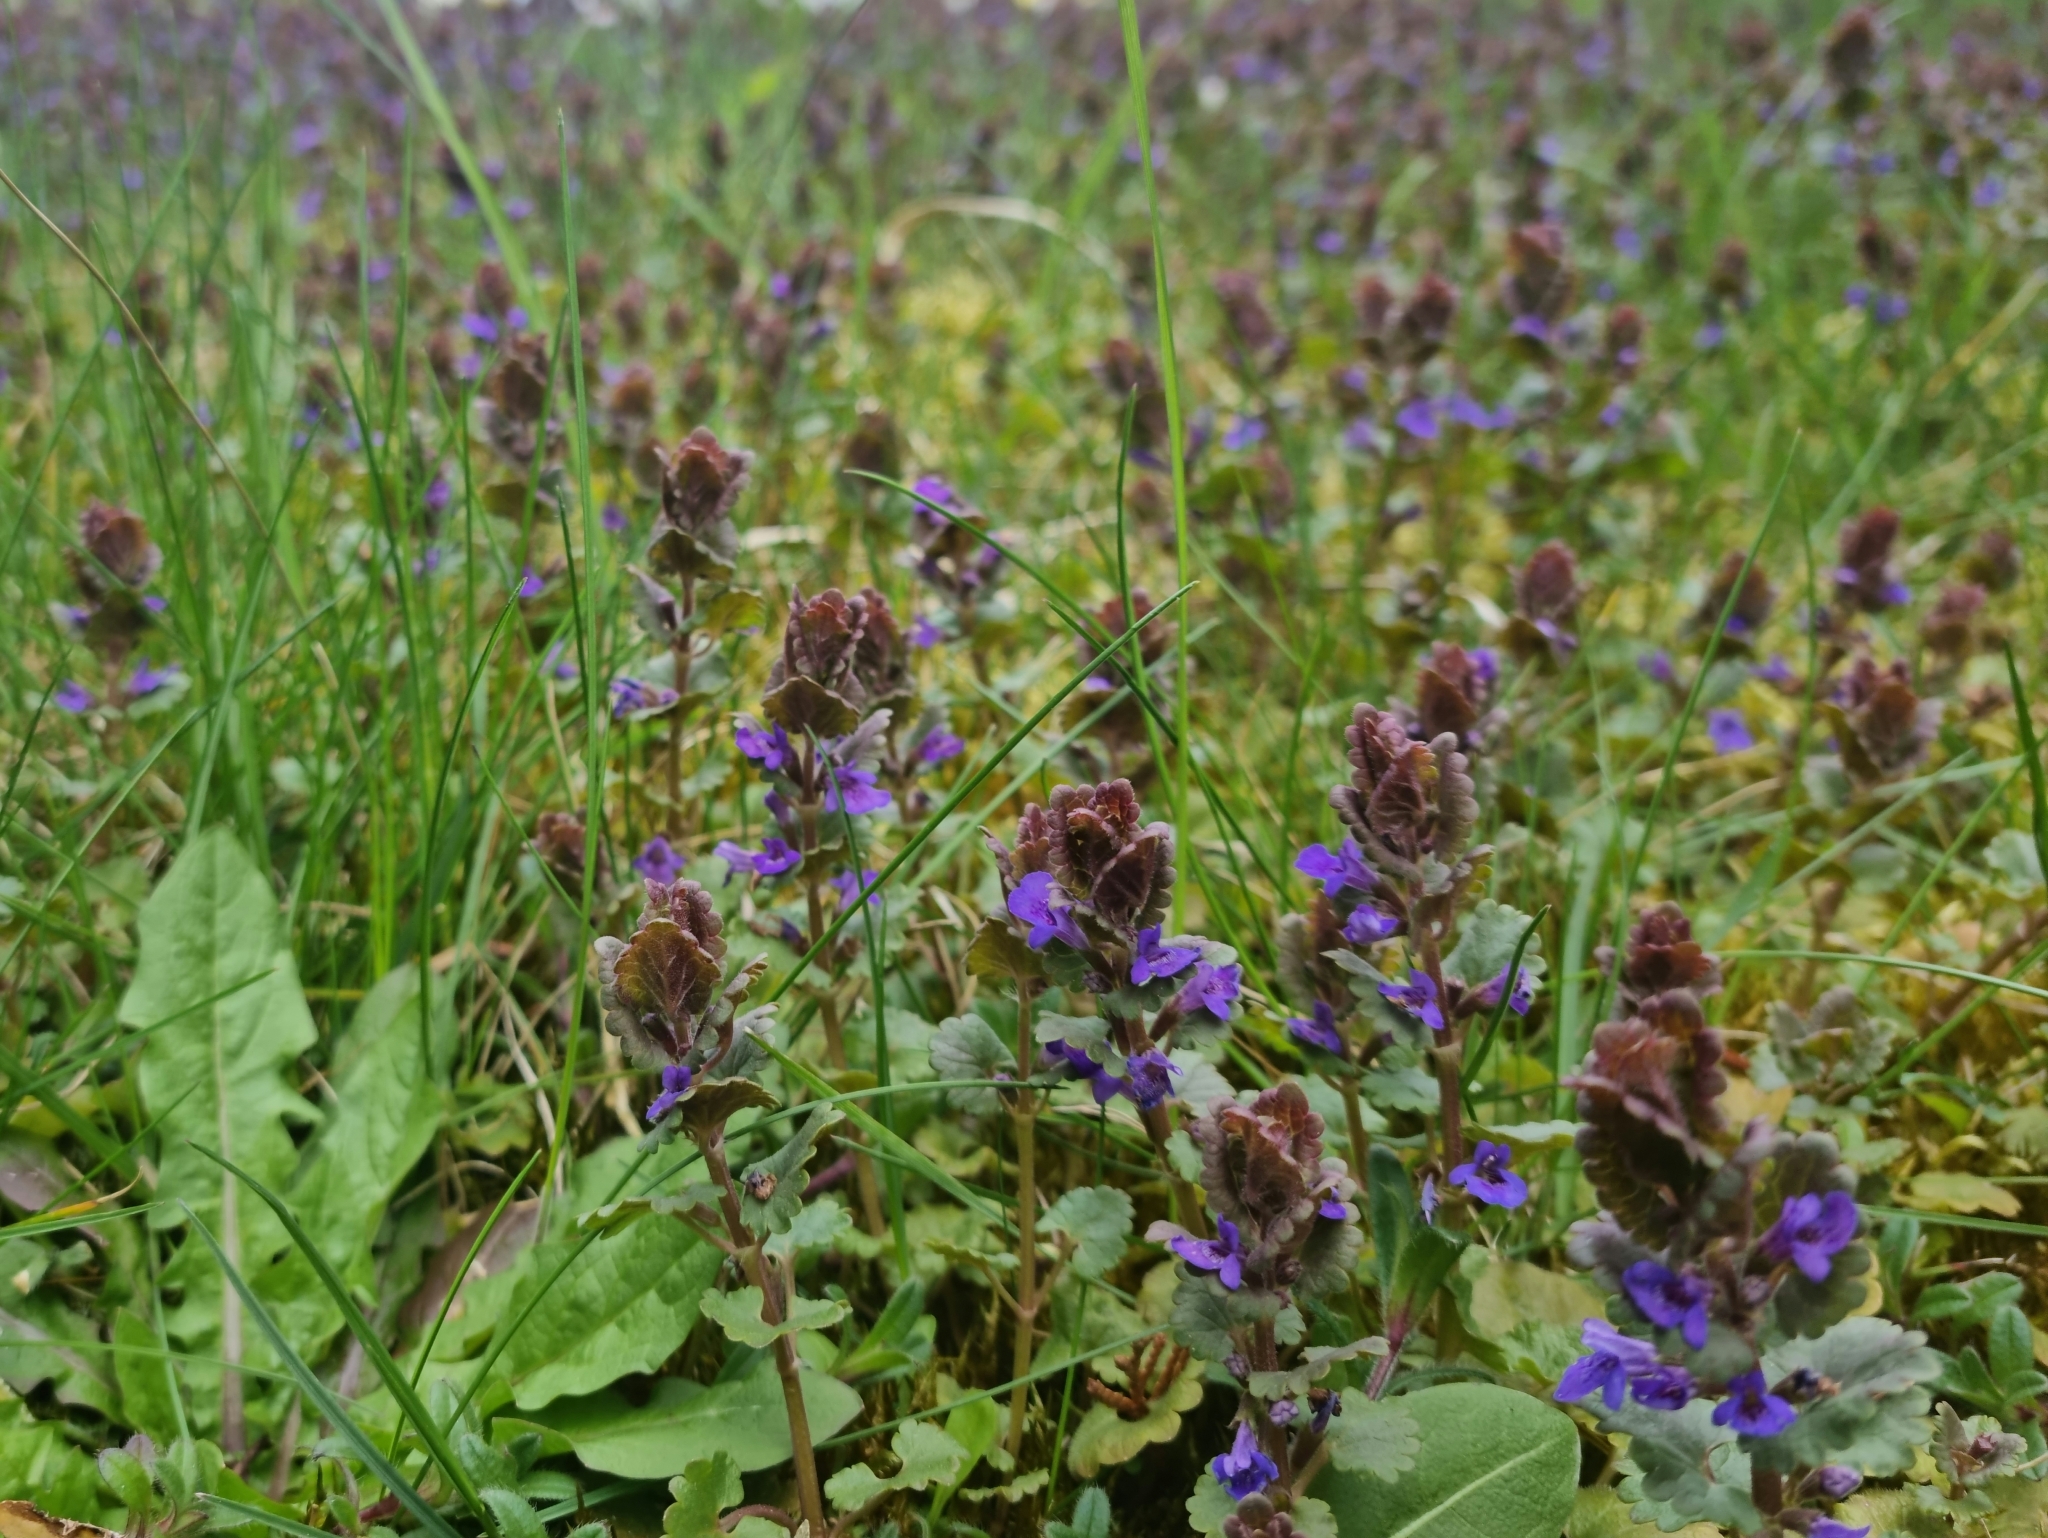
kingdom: Plantae
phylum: Tracheophyta
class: Magnoliopsida
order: Lamiales
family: Lamiaceae
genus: Glechoma
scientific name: Glechoma hederacea
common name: Ground ivy
